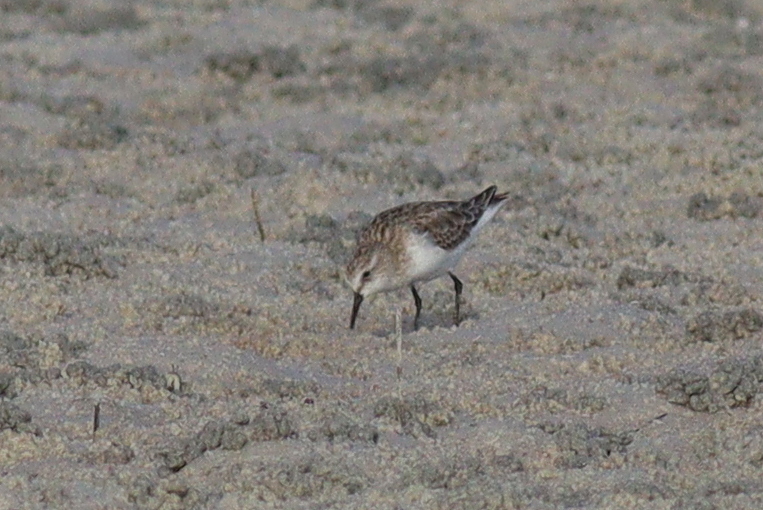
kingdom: Animalia
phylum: Chordata
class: Aves
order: Charadriiformes
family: Scolopacidae
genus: Calidris
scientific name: Calidris minuta
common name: Little stint
